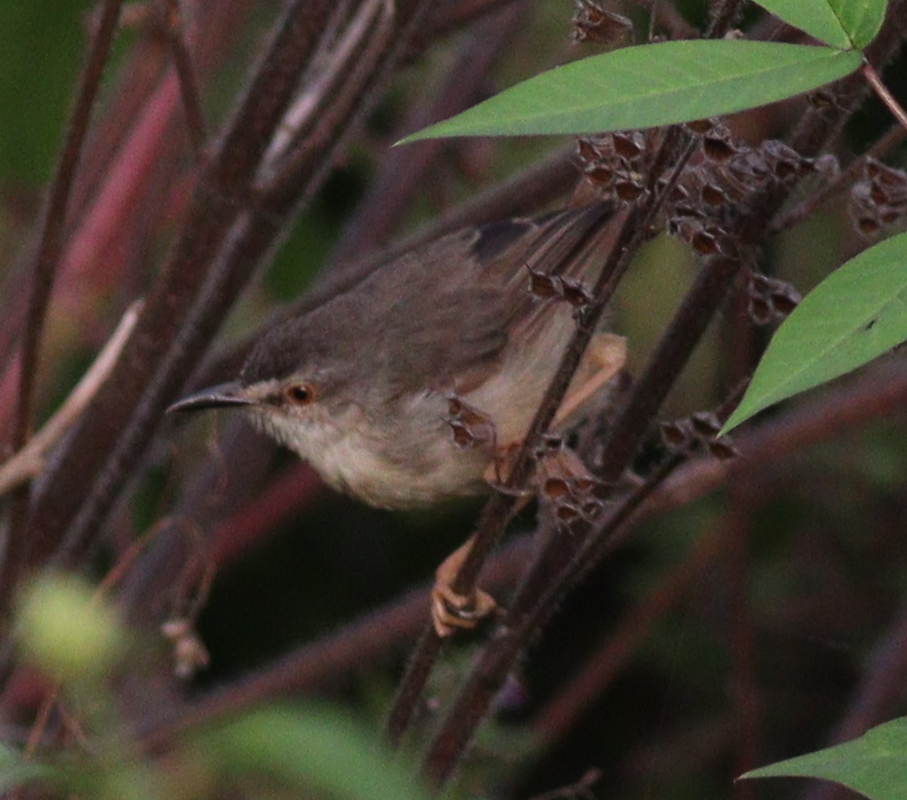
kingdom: Animalia
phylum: Chordata
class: Aves
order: Passeriformes
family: Cisticolidae
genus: Prinia
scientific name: Prinia subflava
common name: Tawny-flanked prinia
